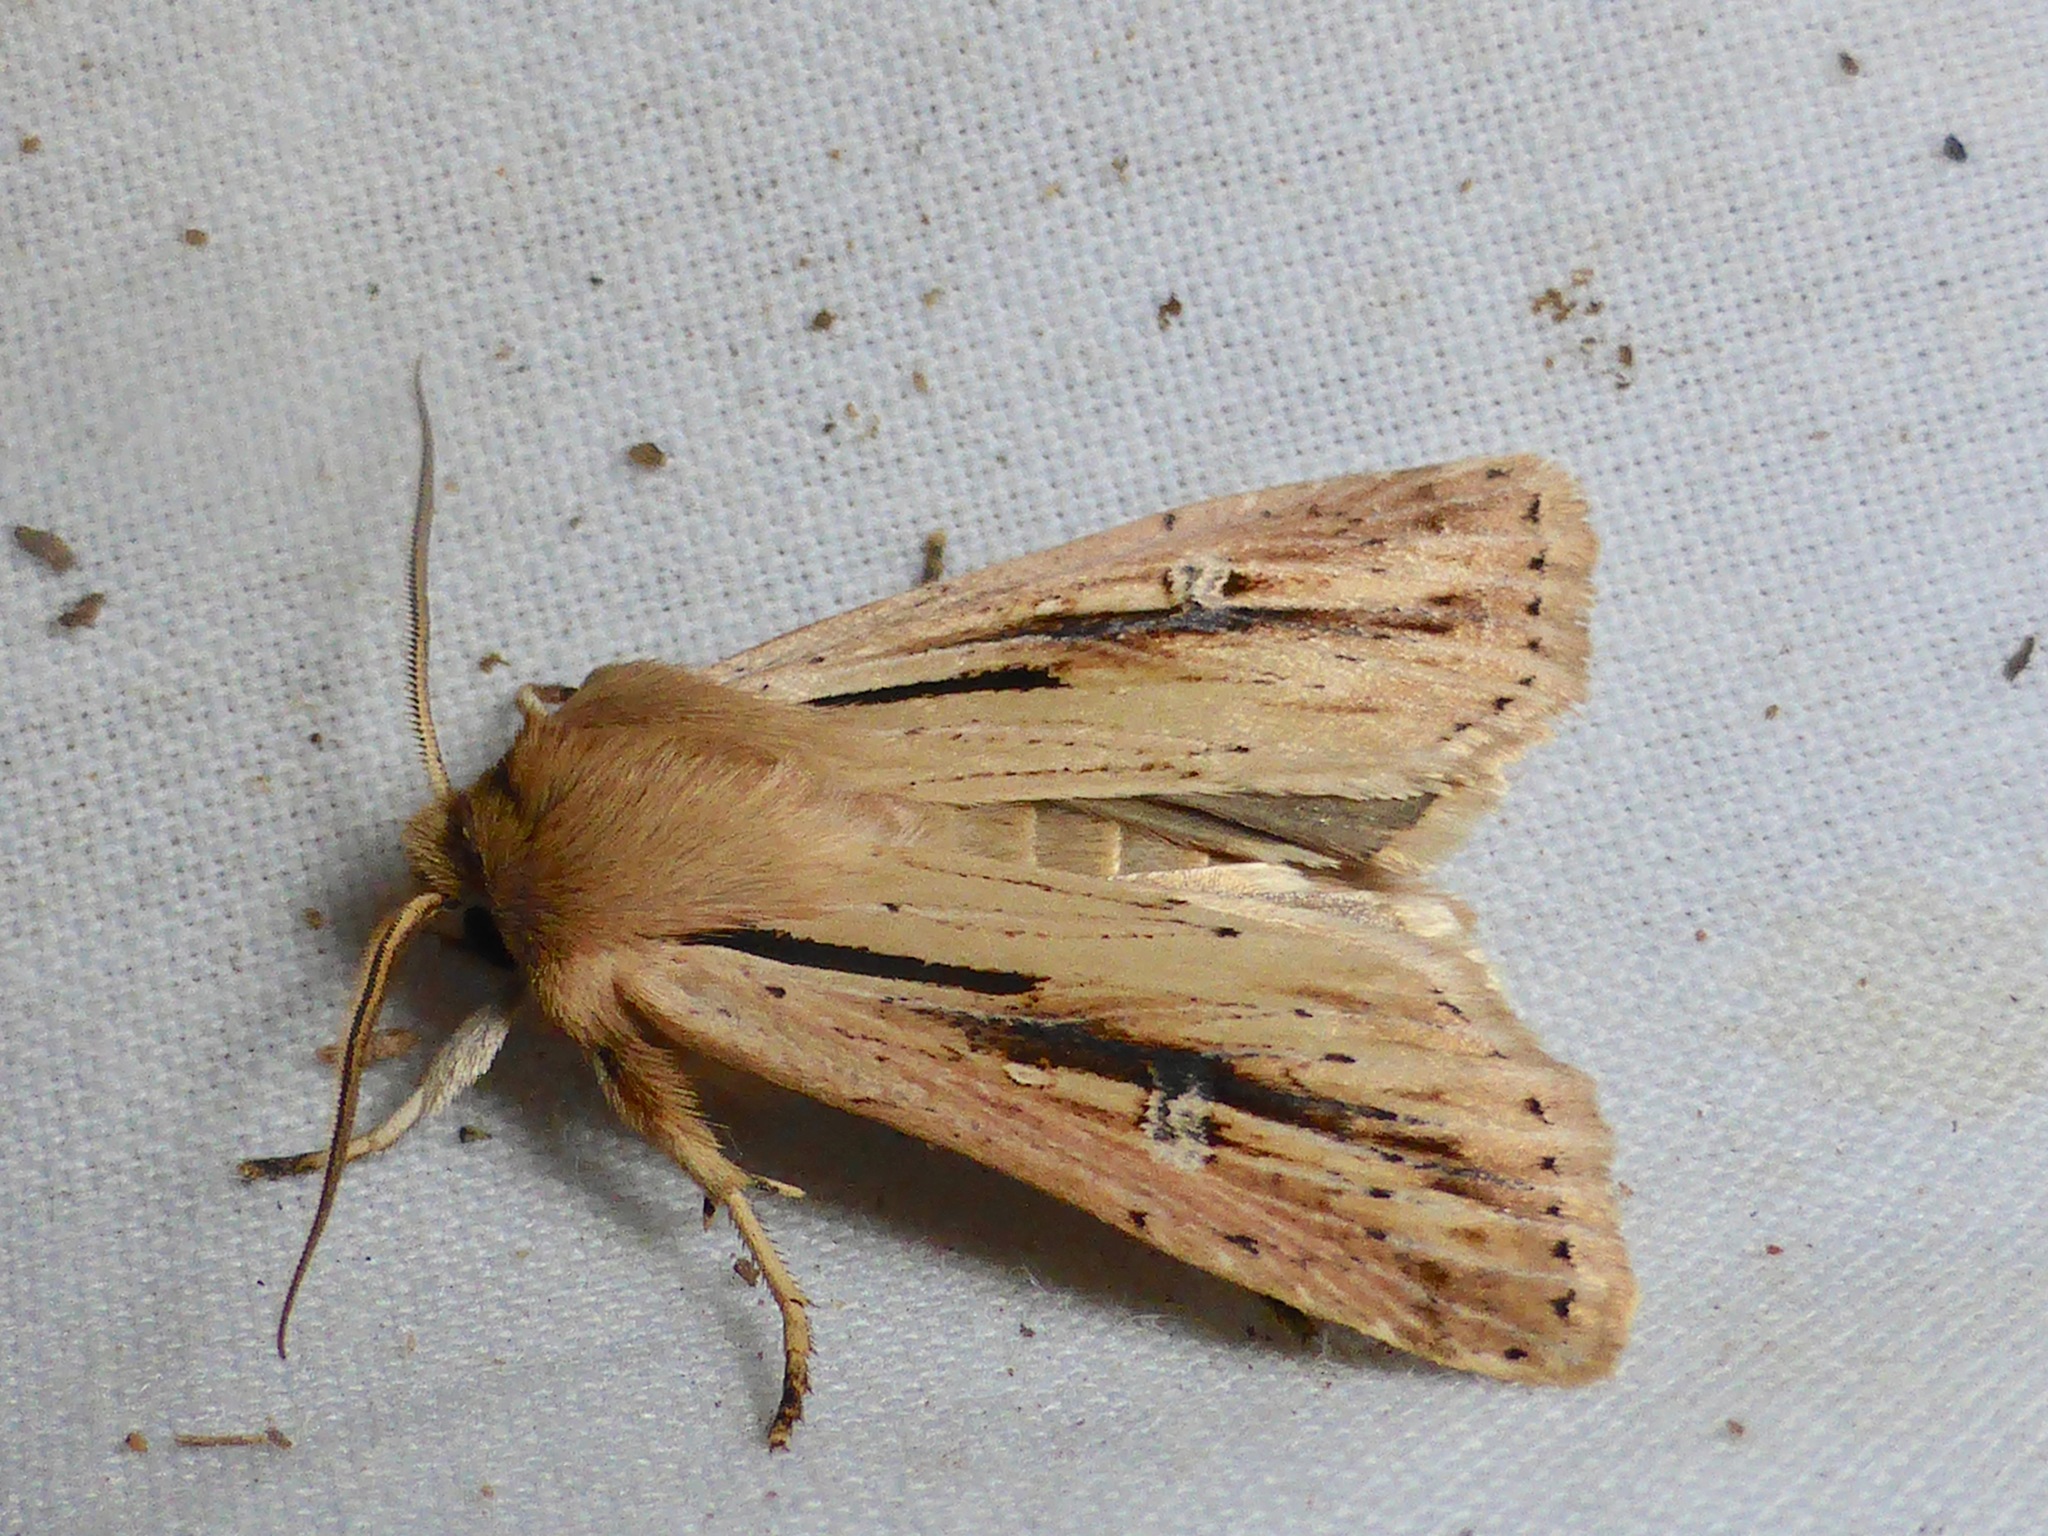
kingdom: Animalia
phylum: Arthropoda
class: Insecta
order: Lepidoptera
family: Noctuidae
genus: Ichneutica
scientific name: Ichneutica propria
